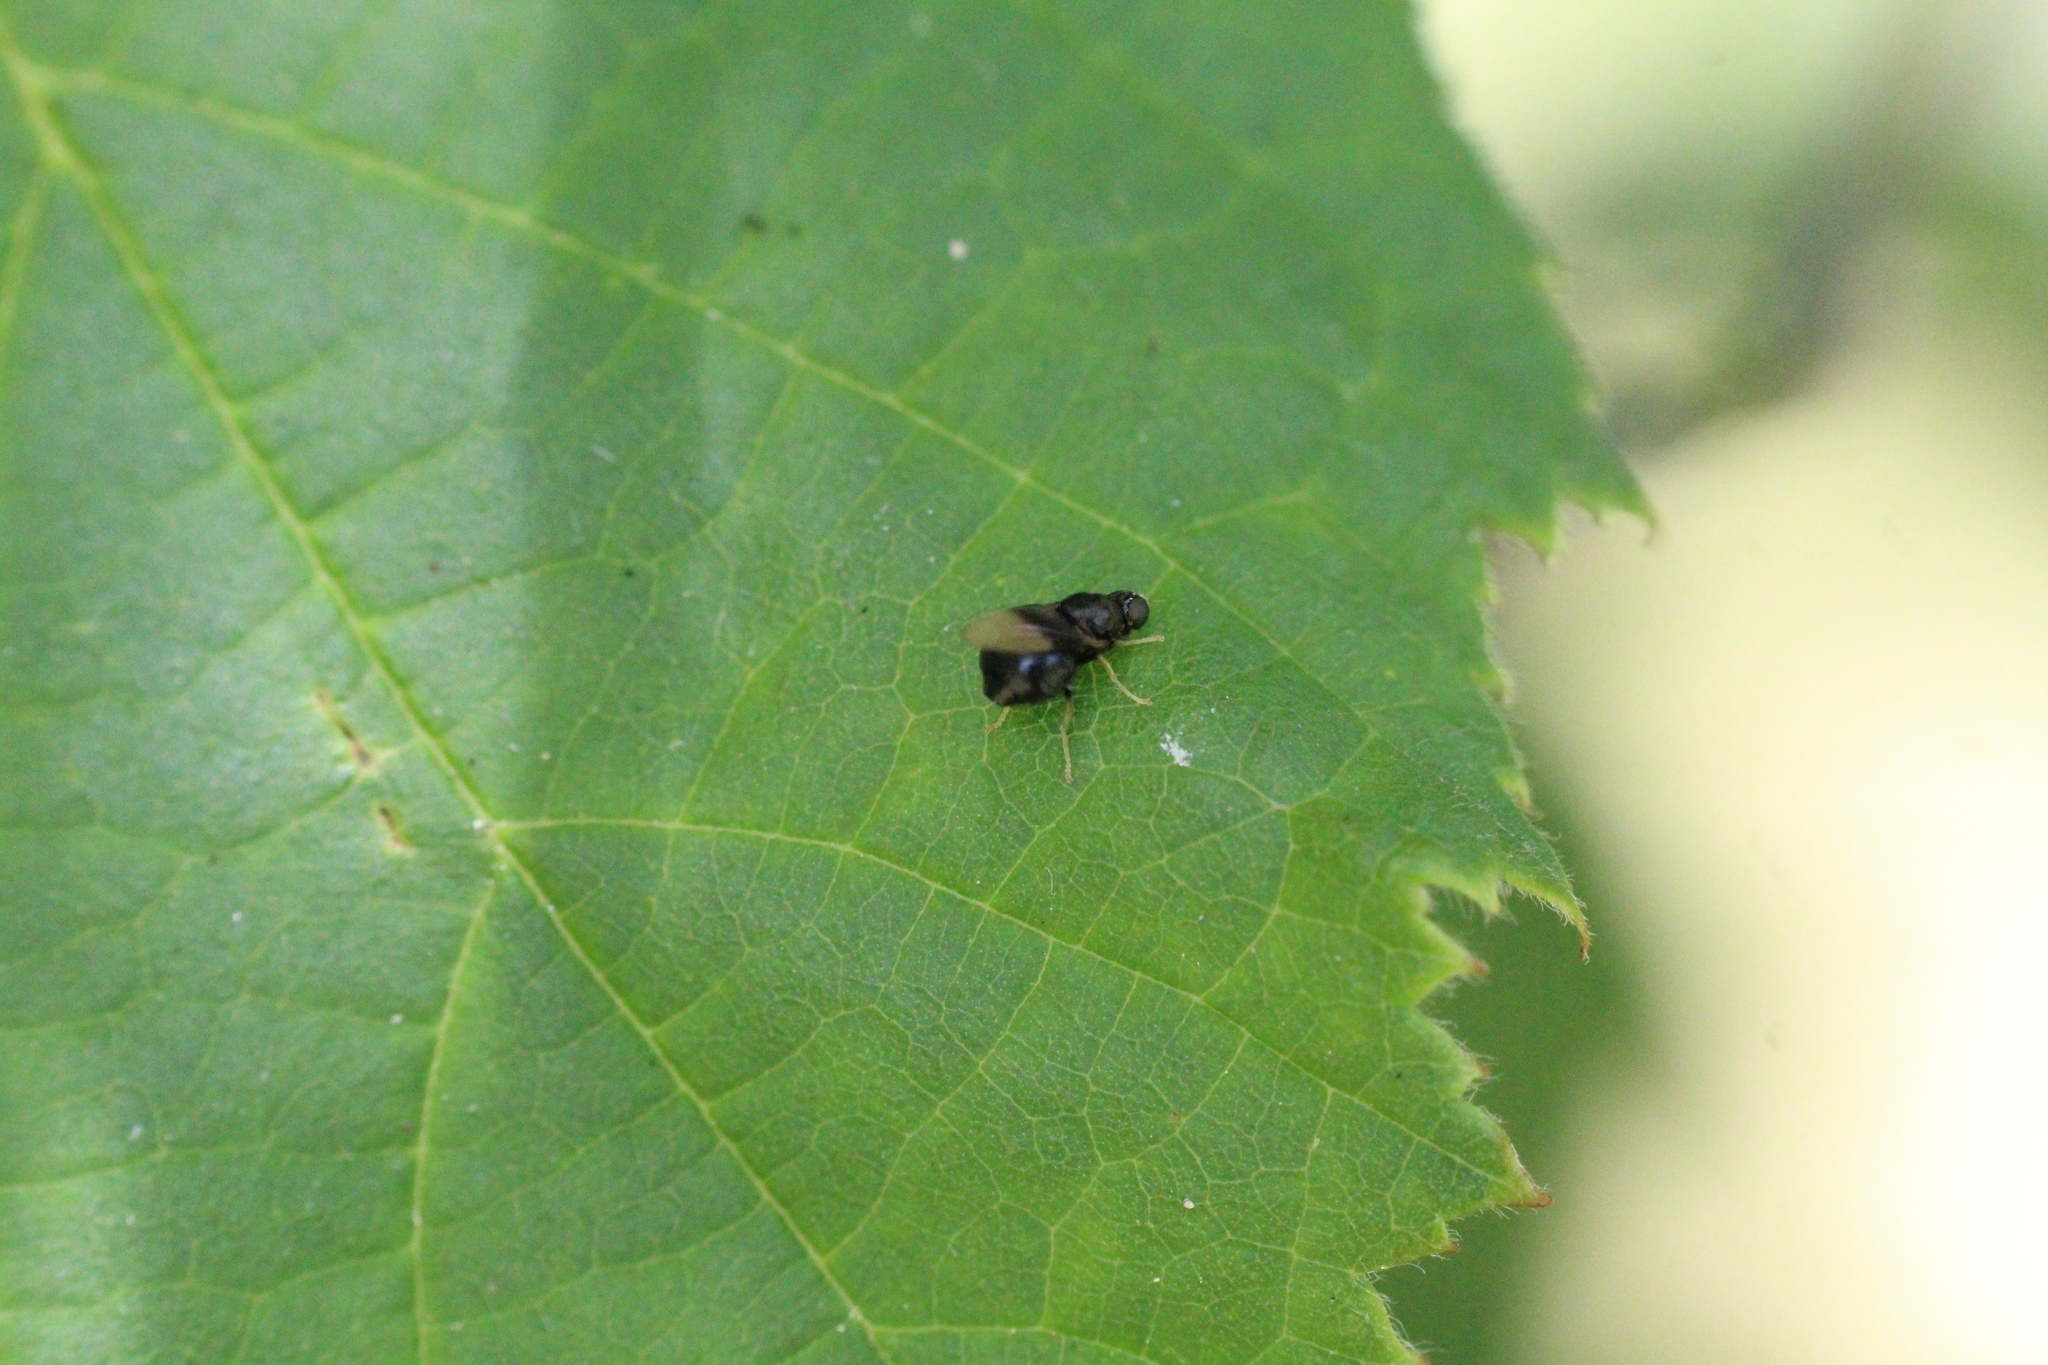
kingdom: Animalia
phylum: Arthropoda
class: Insecta
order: Diptera
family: Stratiomyidae
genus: Pachygaster
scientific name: Pachygaster atra
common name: Dark-winged black
